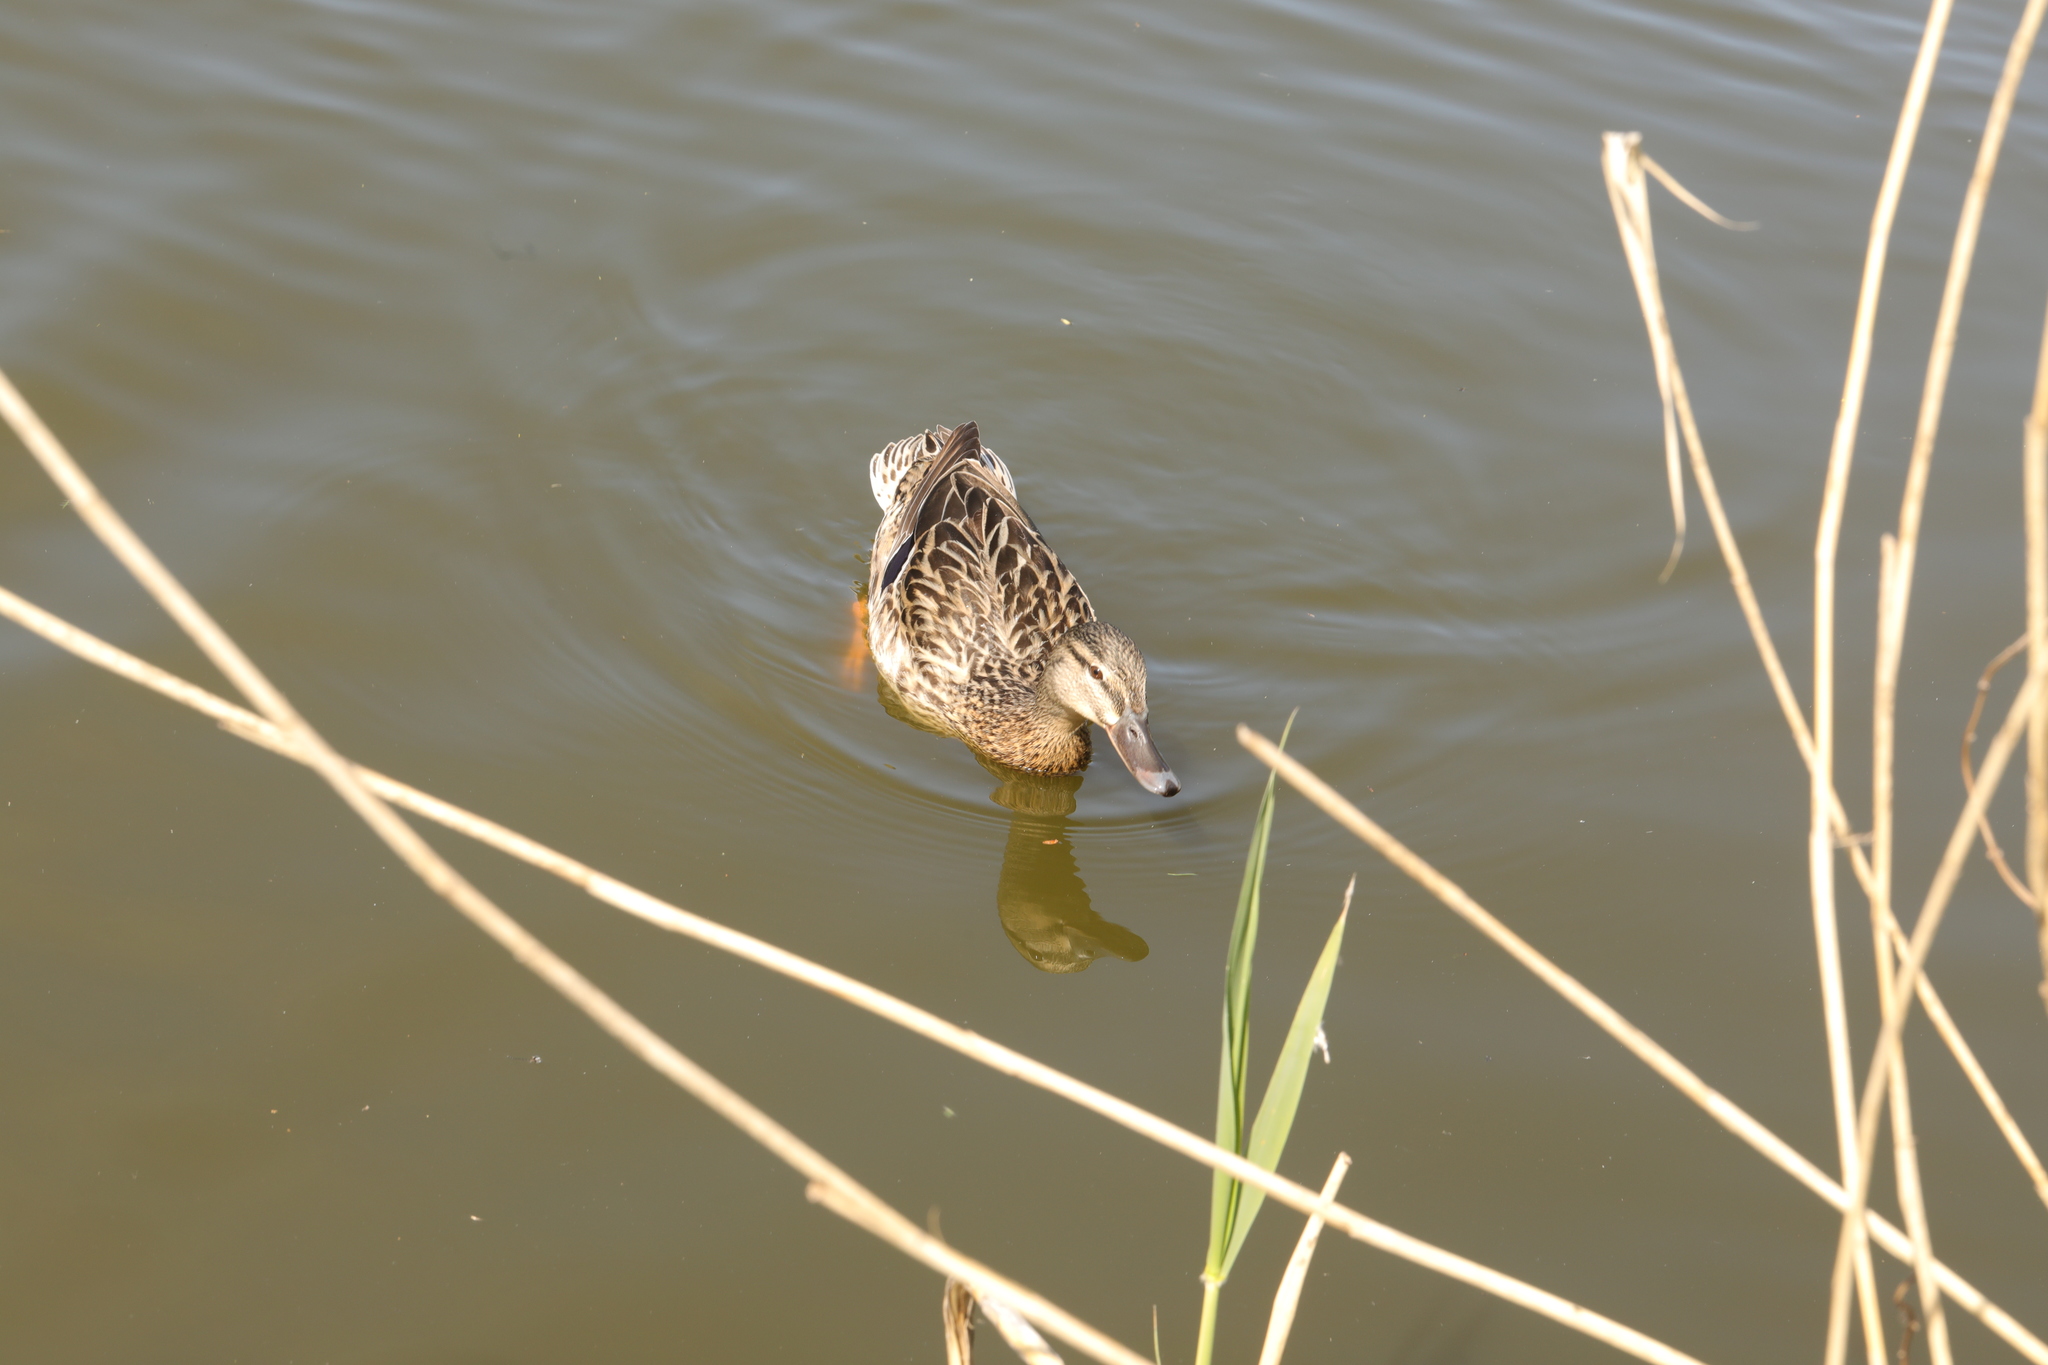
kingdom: Animalia
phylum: Chordata
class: Aves
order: Anseriformes
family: Anatidae
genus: Anas
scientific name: Anas platyrhynchos
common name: Mallard
